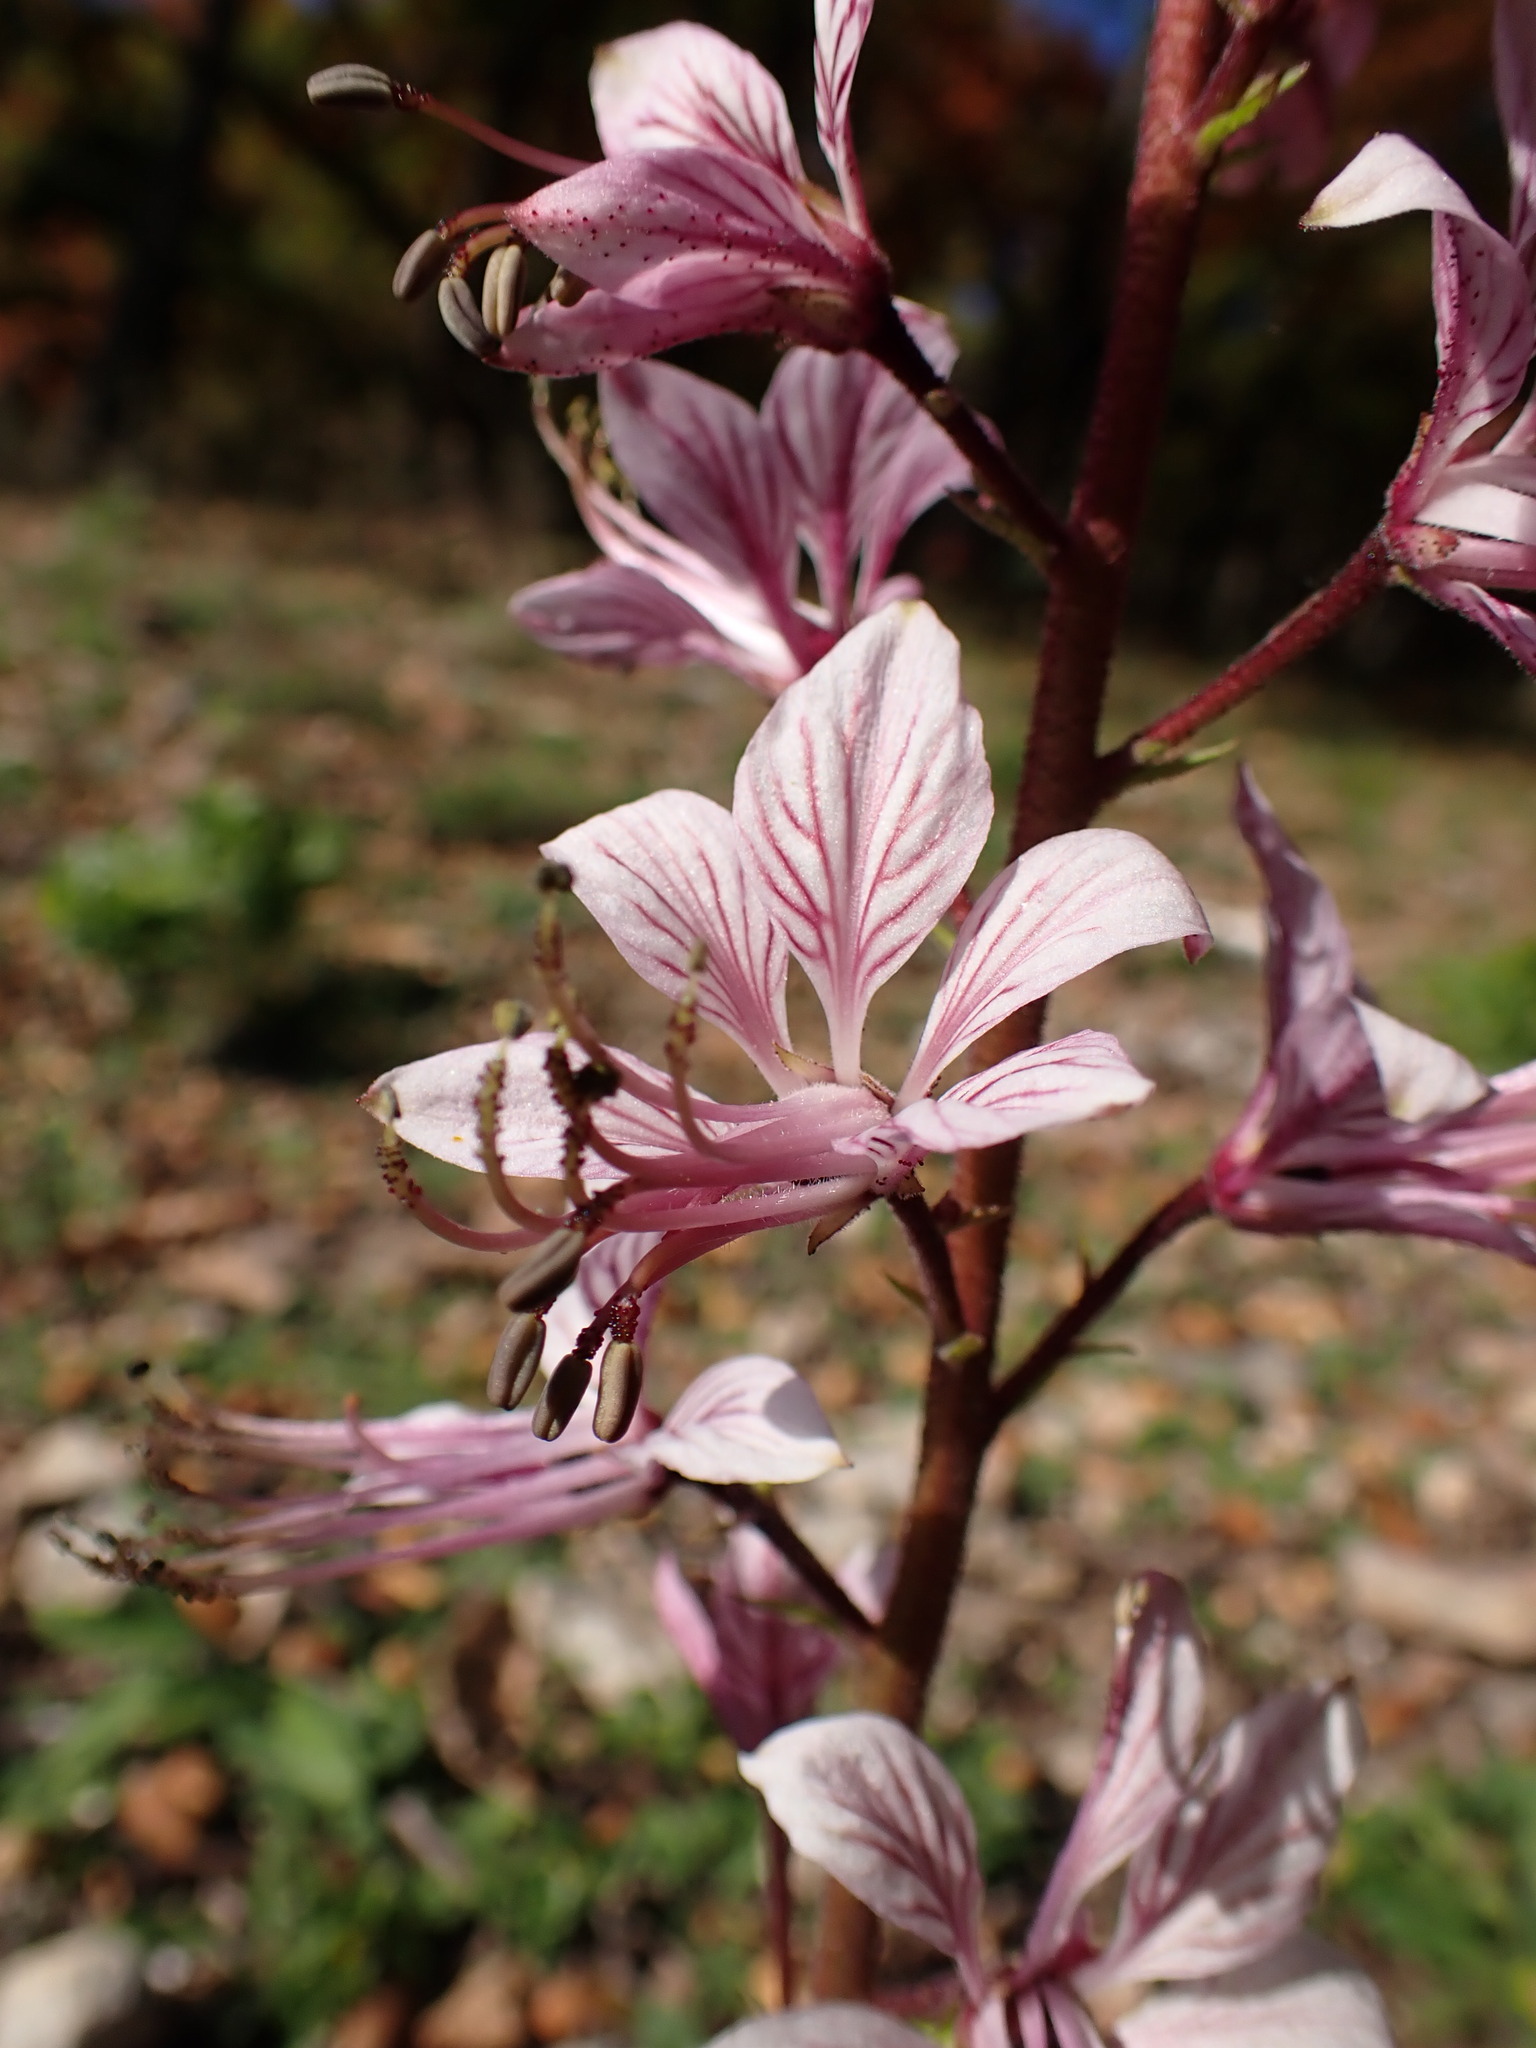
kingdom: Plantae
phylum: Tracheophyta
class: Magnoliopsida
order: Sapindales
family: Rutaceae
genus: Dictamnus
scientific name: Dictamnus albus
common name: Gasplant
